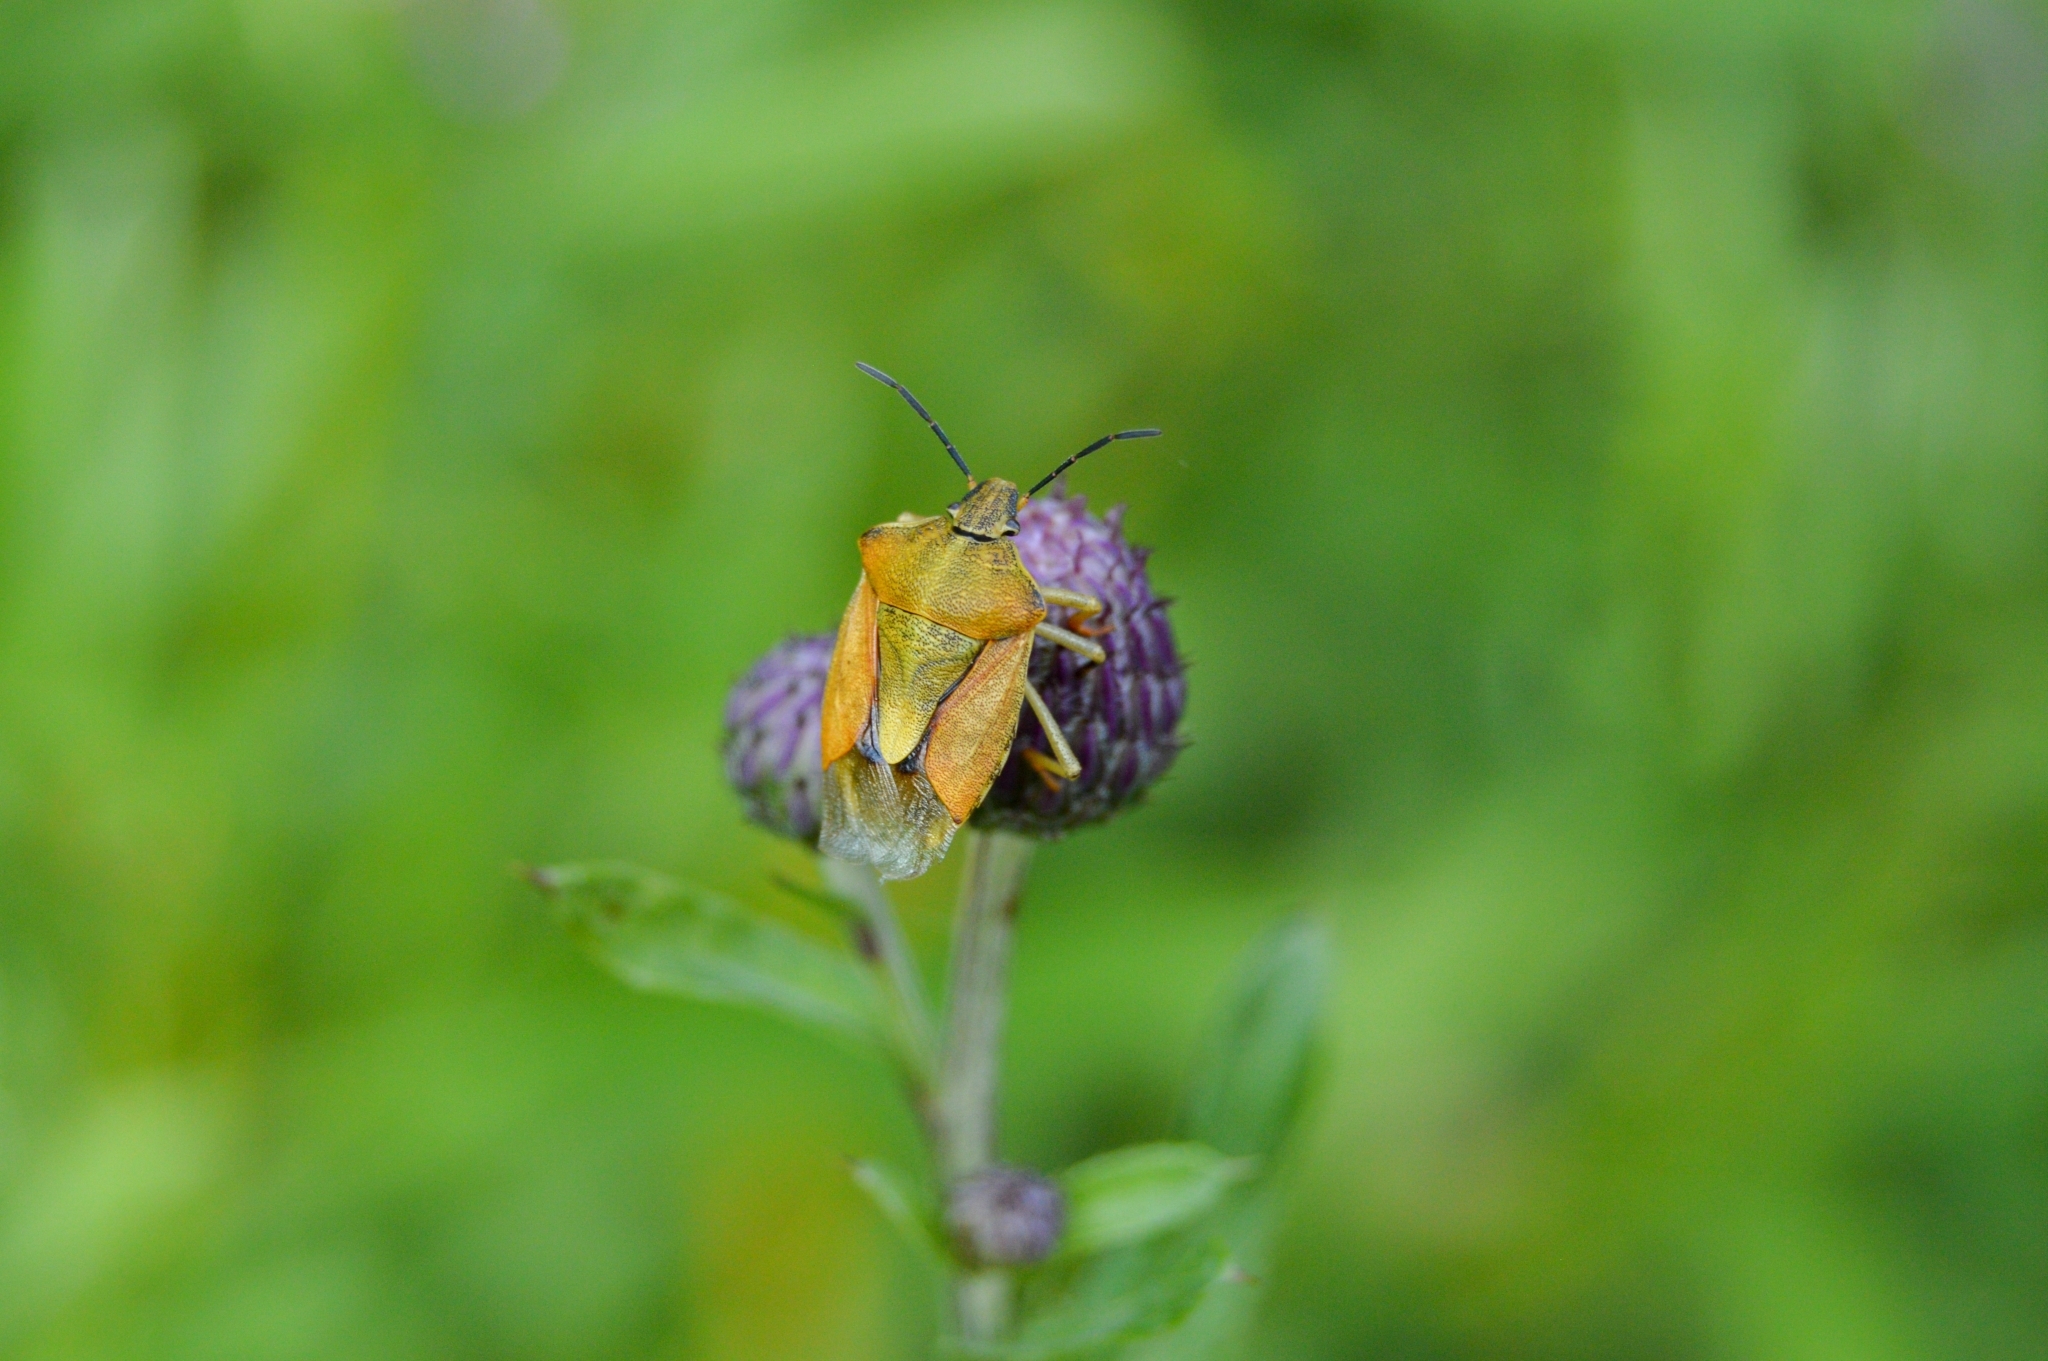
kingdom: Animalia
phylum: Arthropoda
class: Insecta
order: Hemiptera
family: Pentatomidae
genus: Carpocoris
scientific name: Carpocoris purpureipennis
